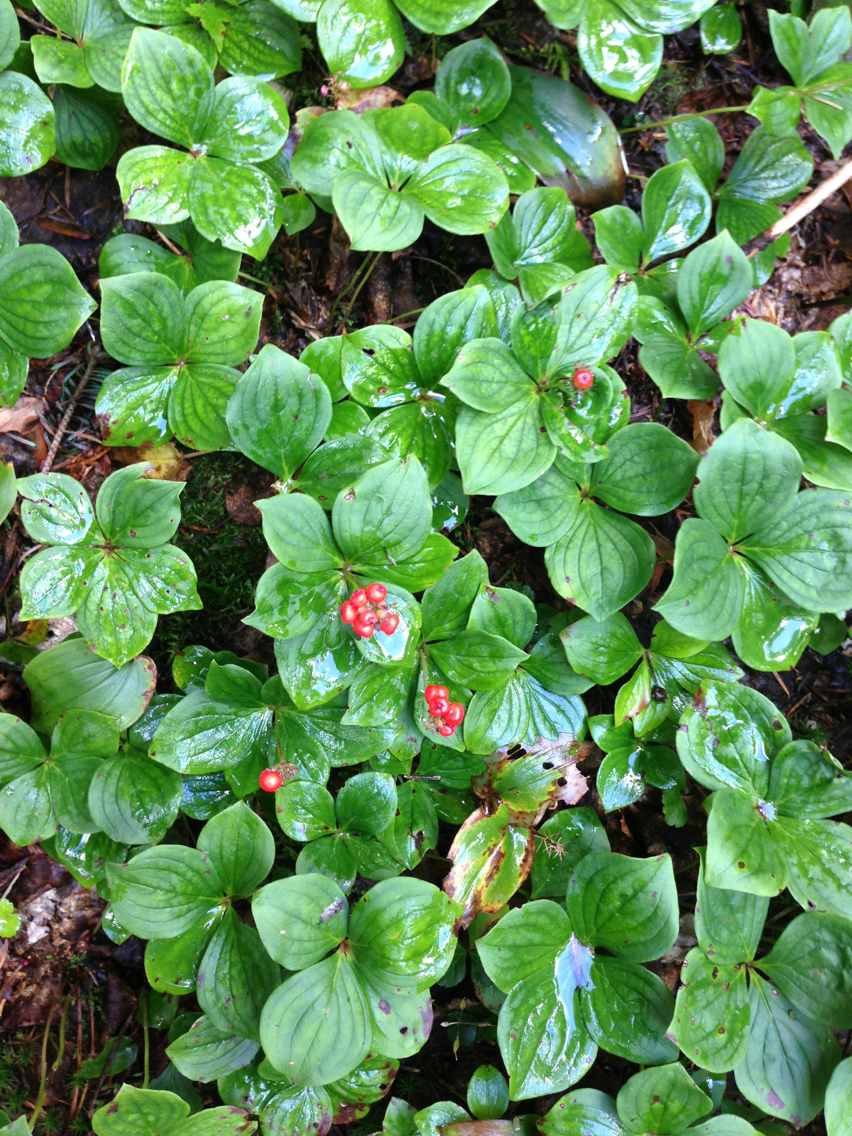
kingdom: Plantae
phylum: Tracheophyta
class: Magnoliopsida
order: Cornales
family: Cornaceae
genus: Cornus
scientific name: Cornus canadensis
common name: Creeping dogwood
